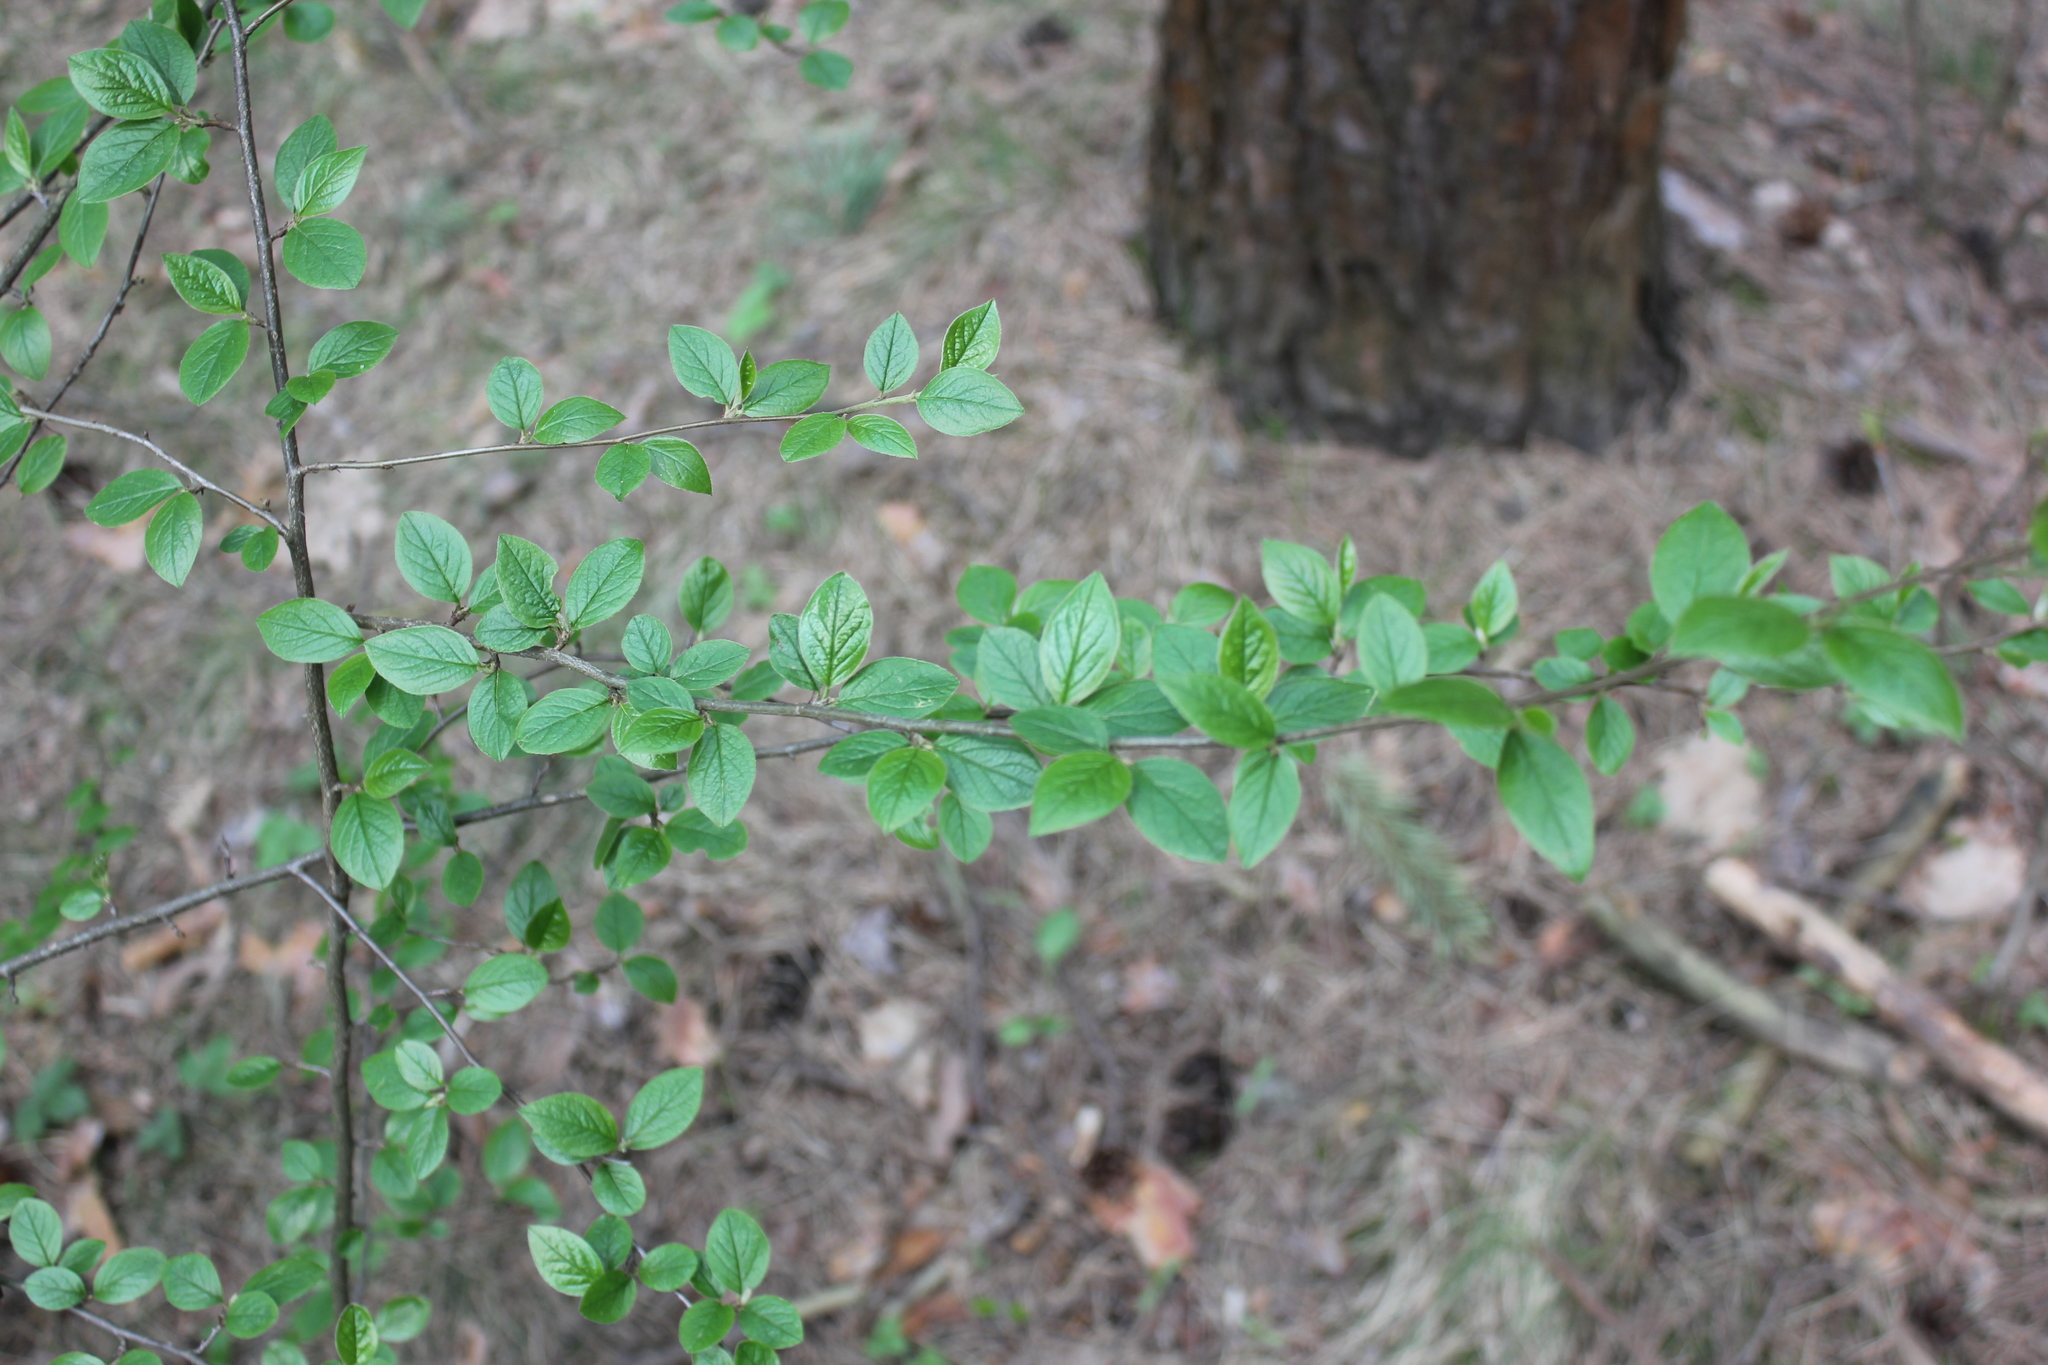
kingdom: Plantae
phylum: Tracheophyta
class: Magnoliopsida
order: Rosales
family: Rosaceae
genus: Cotoneaster
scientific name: Cotoneaster acutifolius
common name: Peking cotoneaster
